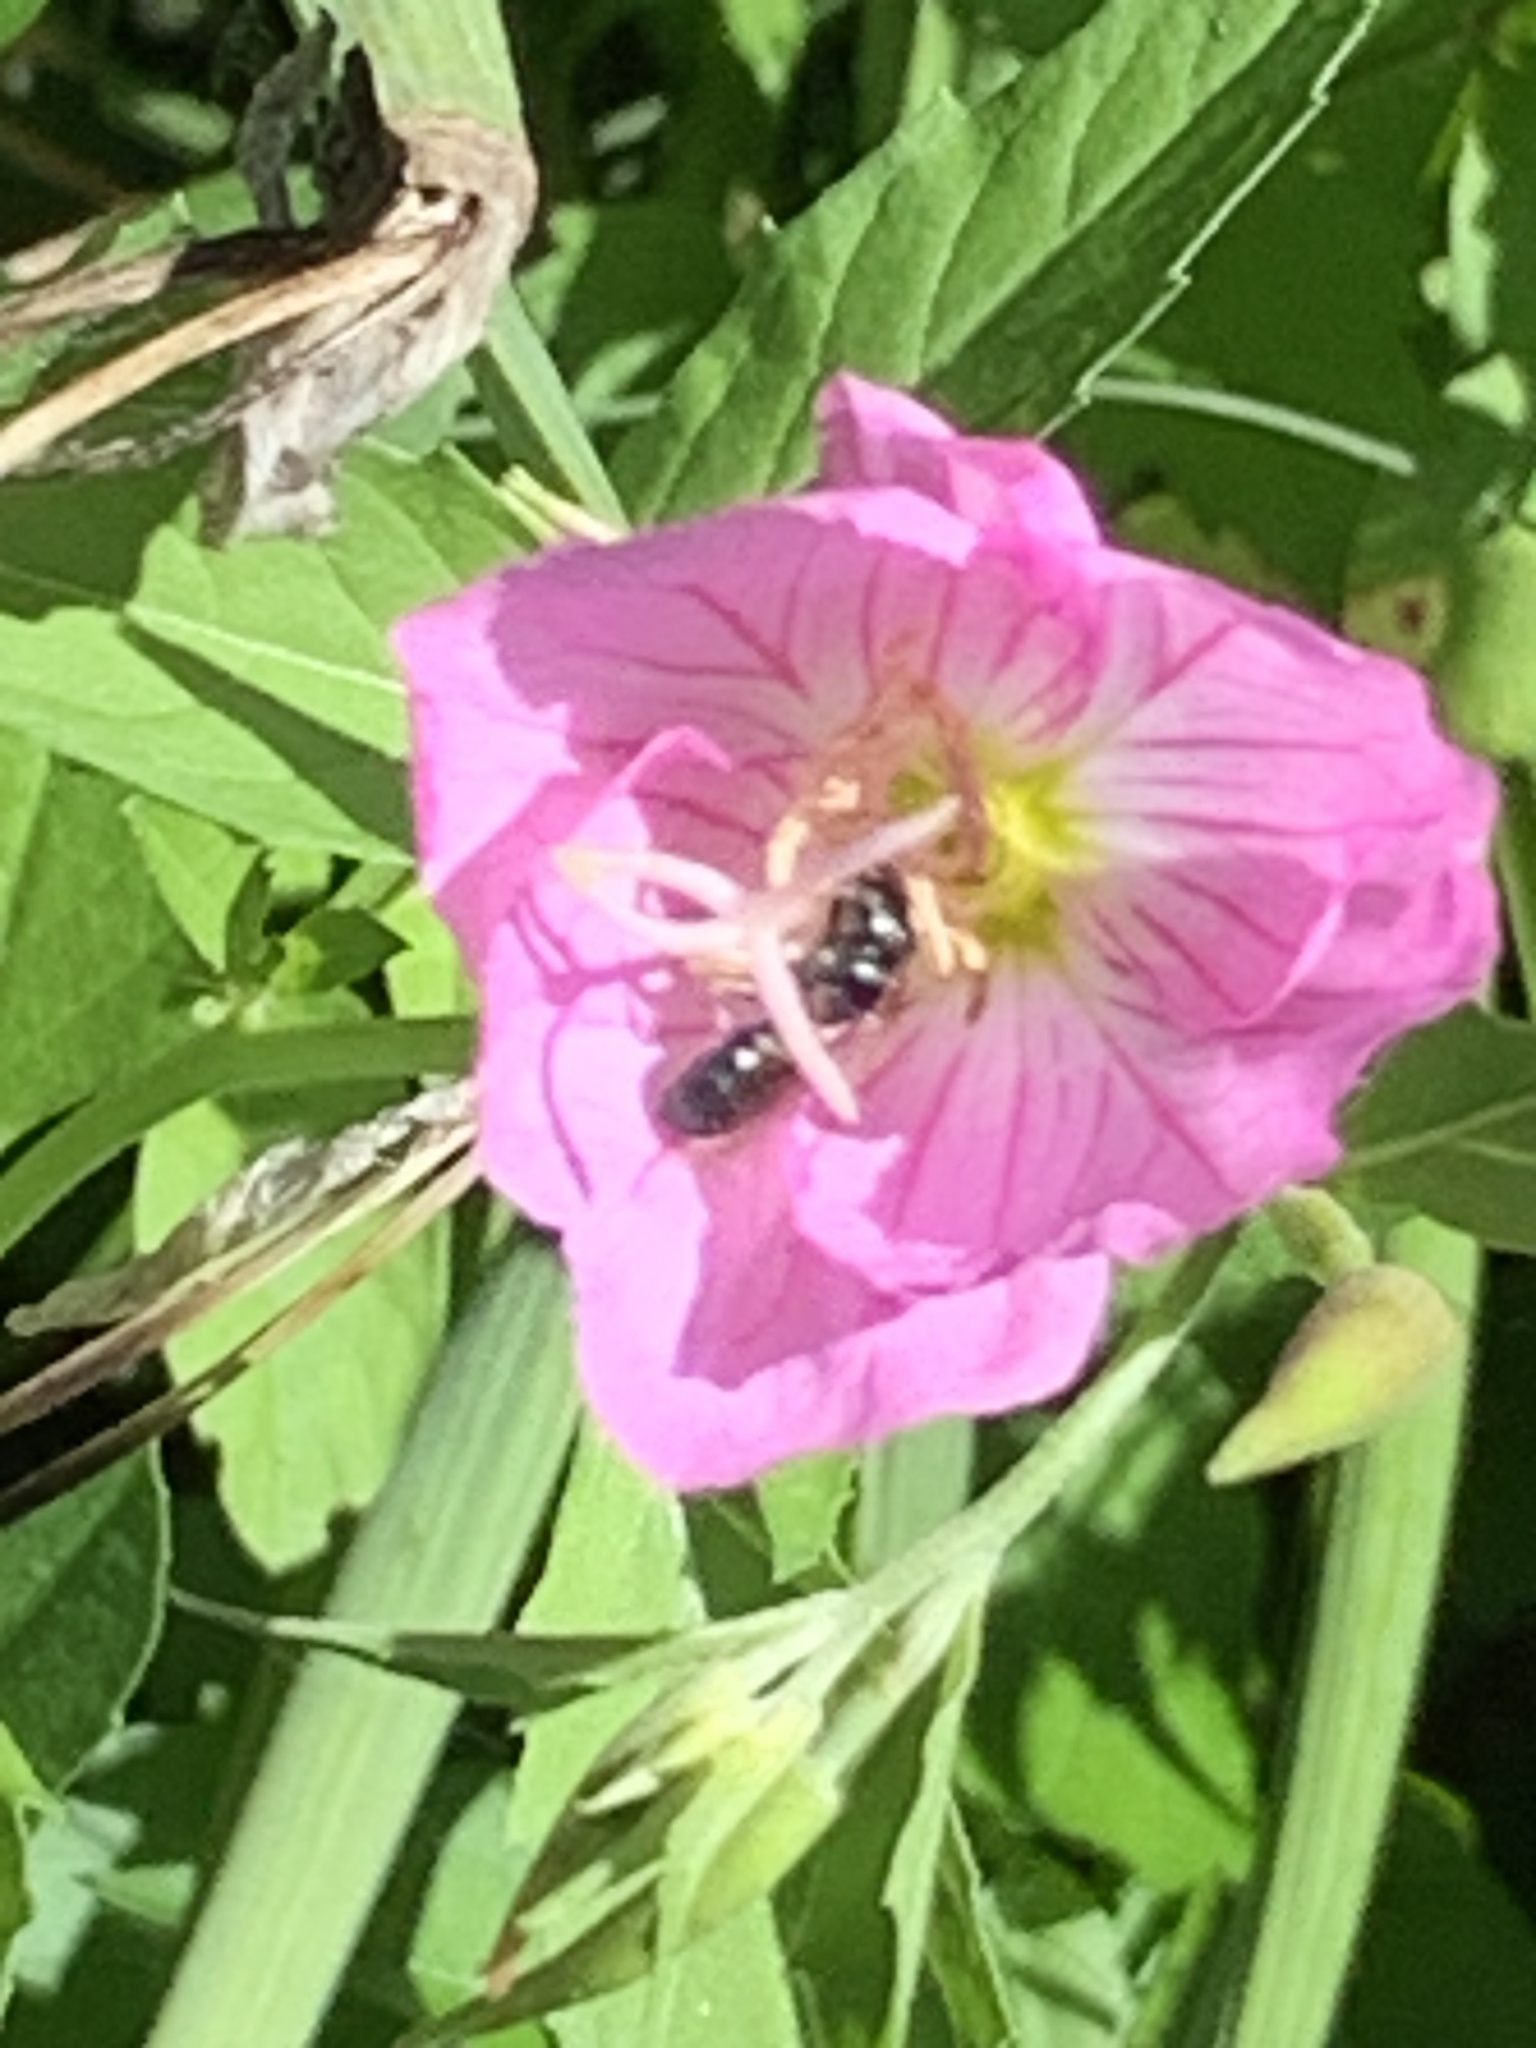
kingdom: Animalia
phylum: Arthropoda
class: Insecta
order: Hymenoptera
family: Apidae
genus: Zadontomerus
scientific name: Zadontomerus
